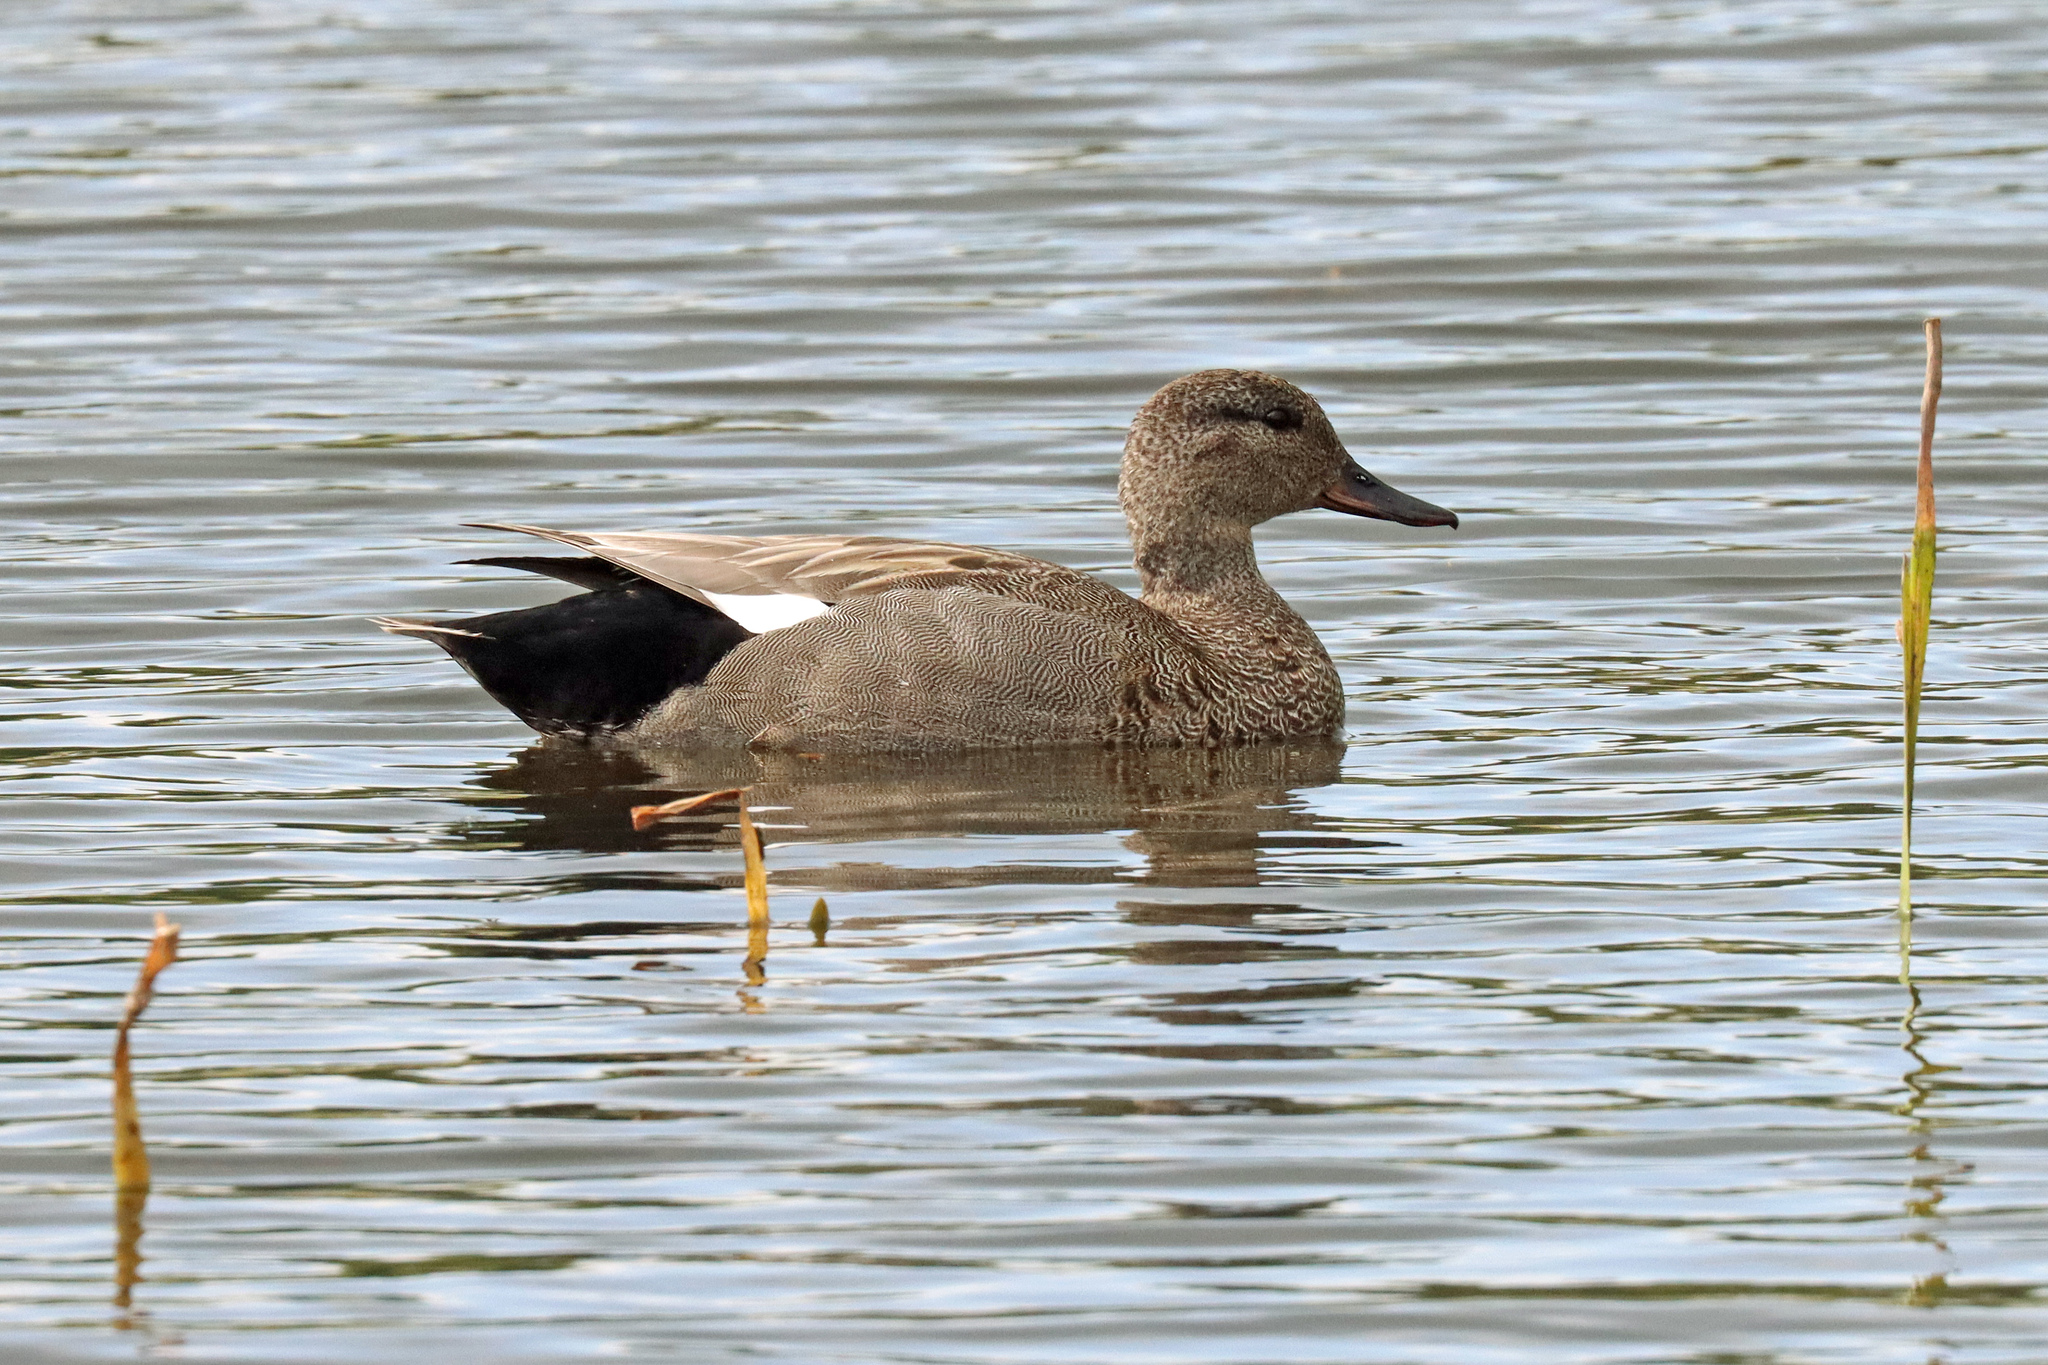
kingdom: Animalia
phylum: Chordata
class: Aves
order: Anseriformes
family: Anatidae
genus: Mareca
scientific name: Mareca strepera
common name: Gadwall
